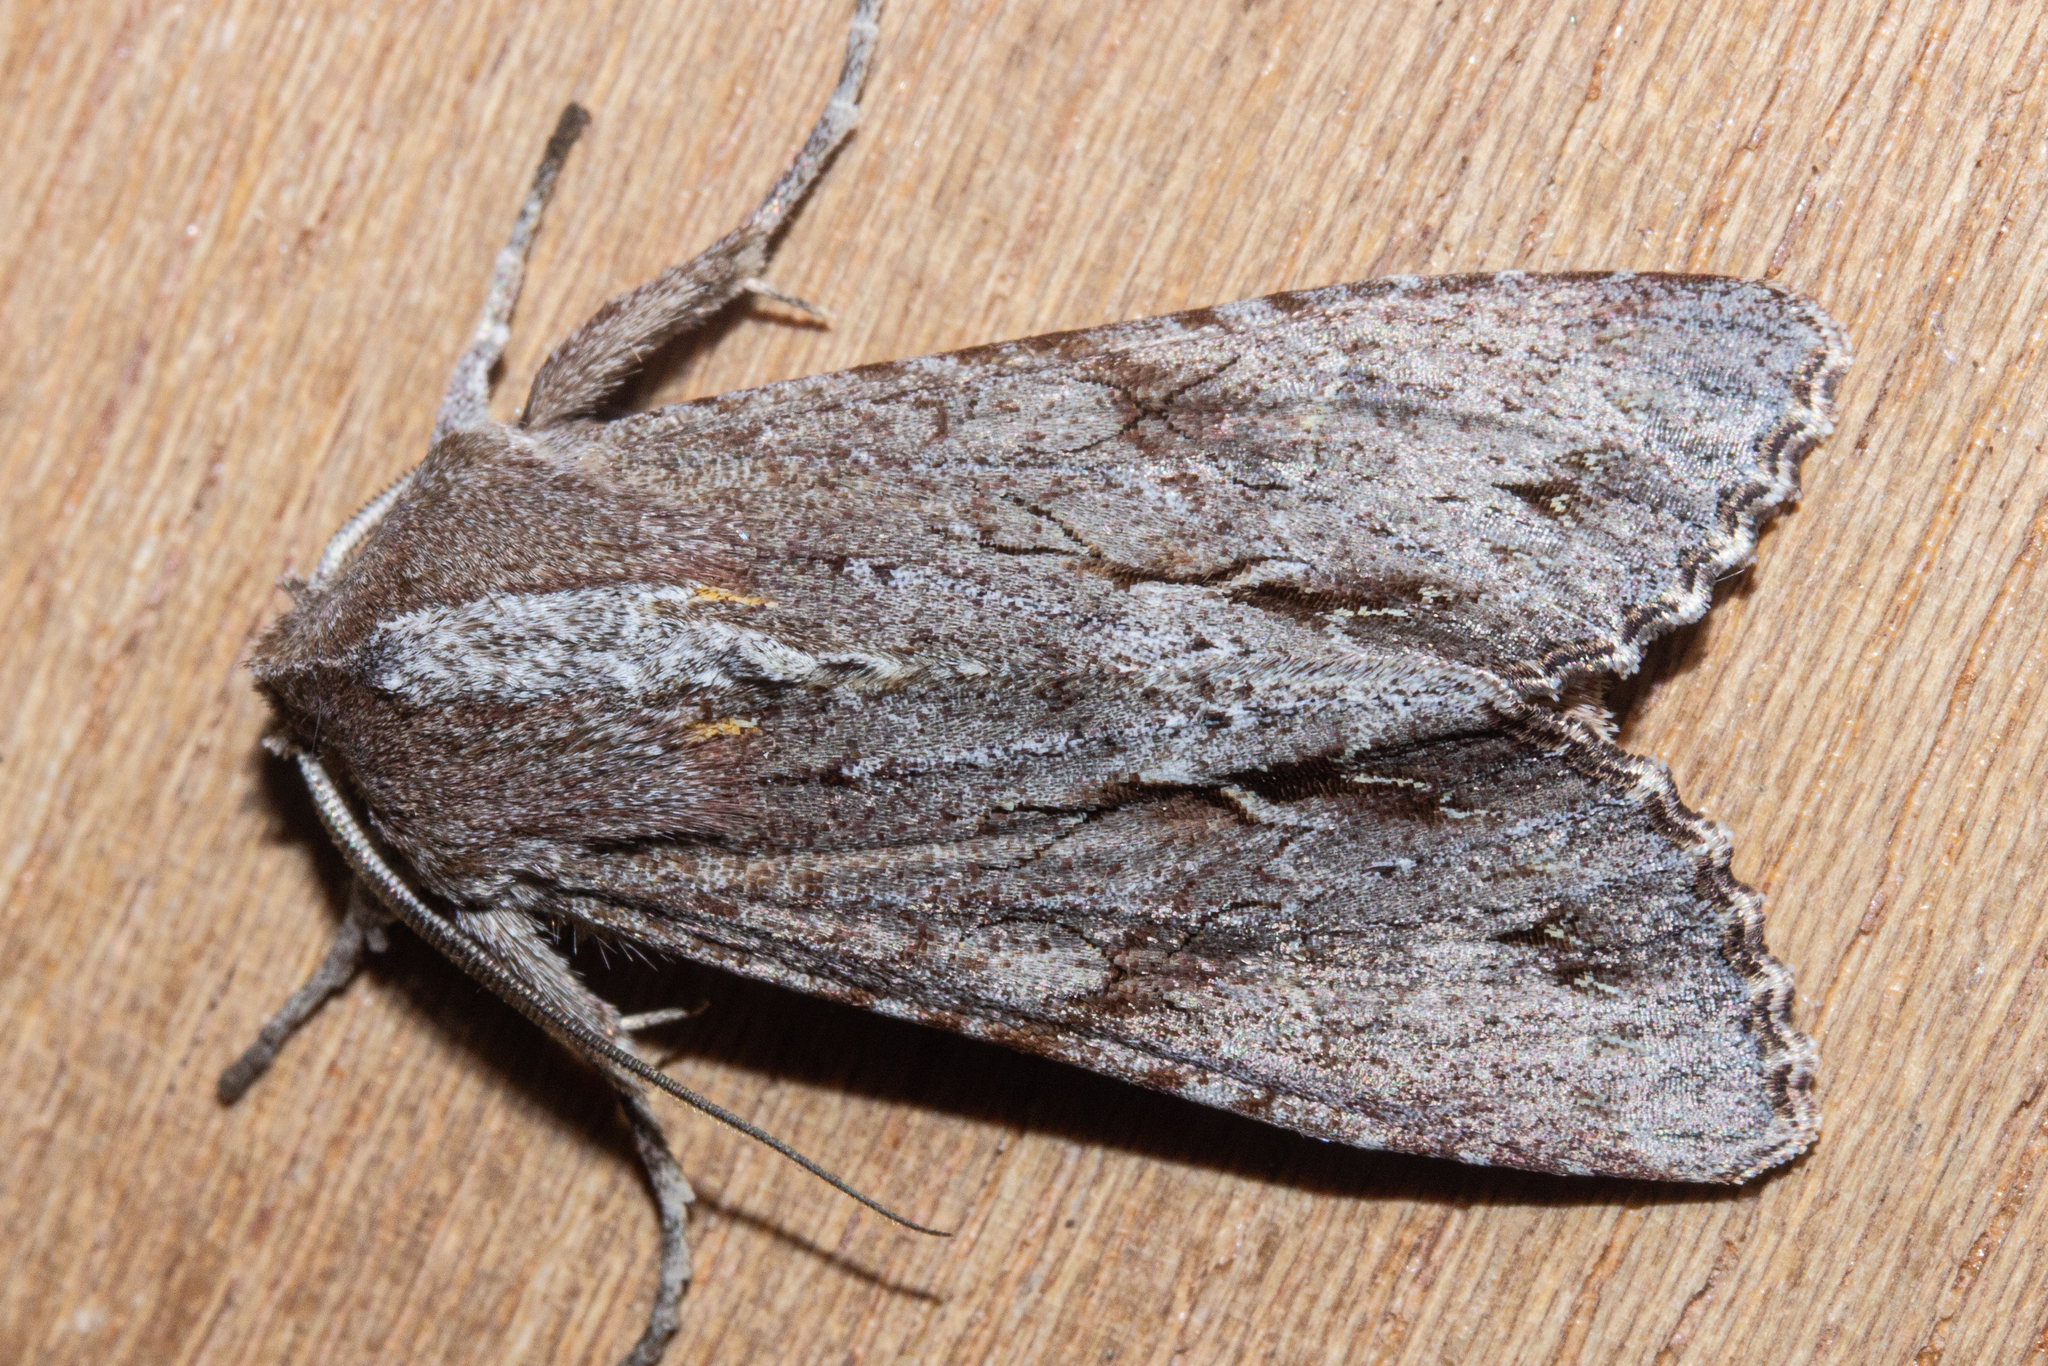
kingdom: Animalia
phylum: Arthropoda
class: Insecta
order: Lepidoptera
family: Noctuidae
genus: Ichneutica
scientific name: Ichneutica
